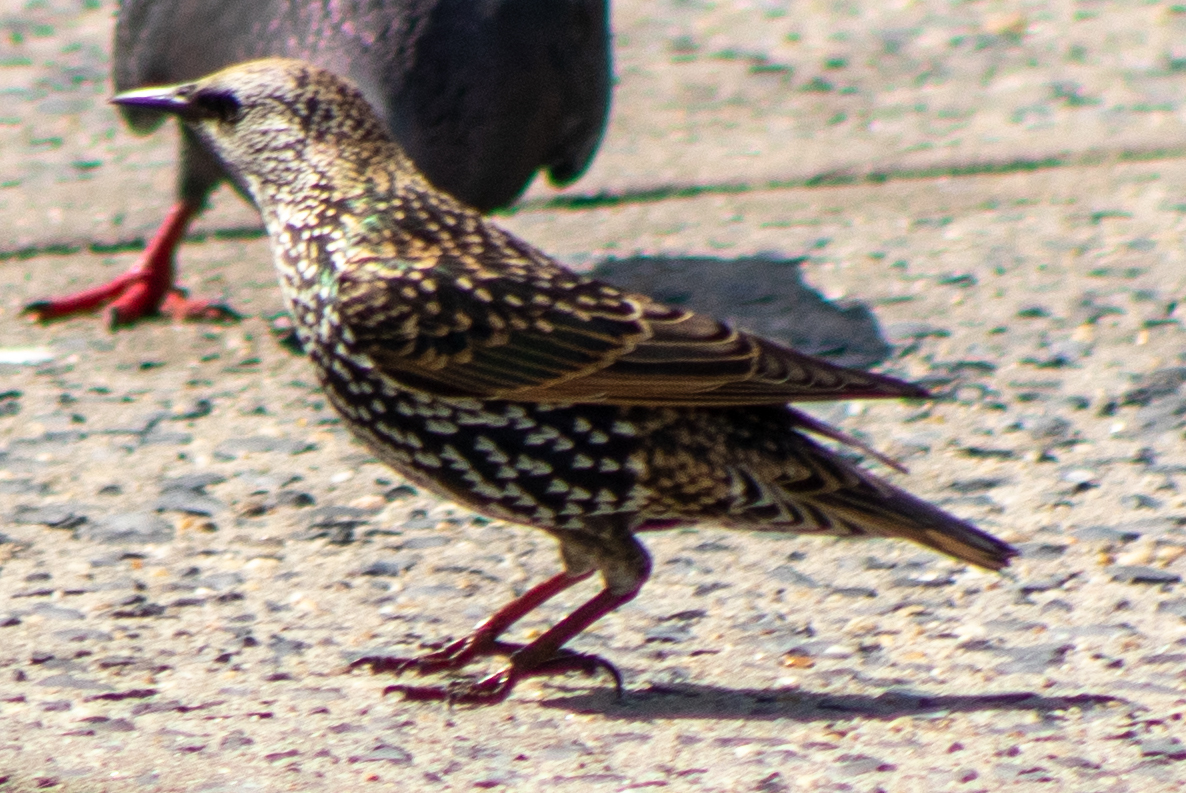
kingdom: Animalia
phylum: Chordata
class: Aves
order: Passeriformes
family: Sturnidae
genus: Sturnus
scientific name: Sturnus vulgaris
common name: Common starling
